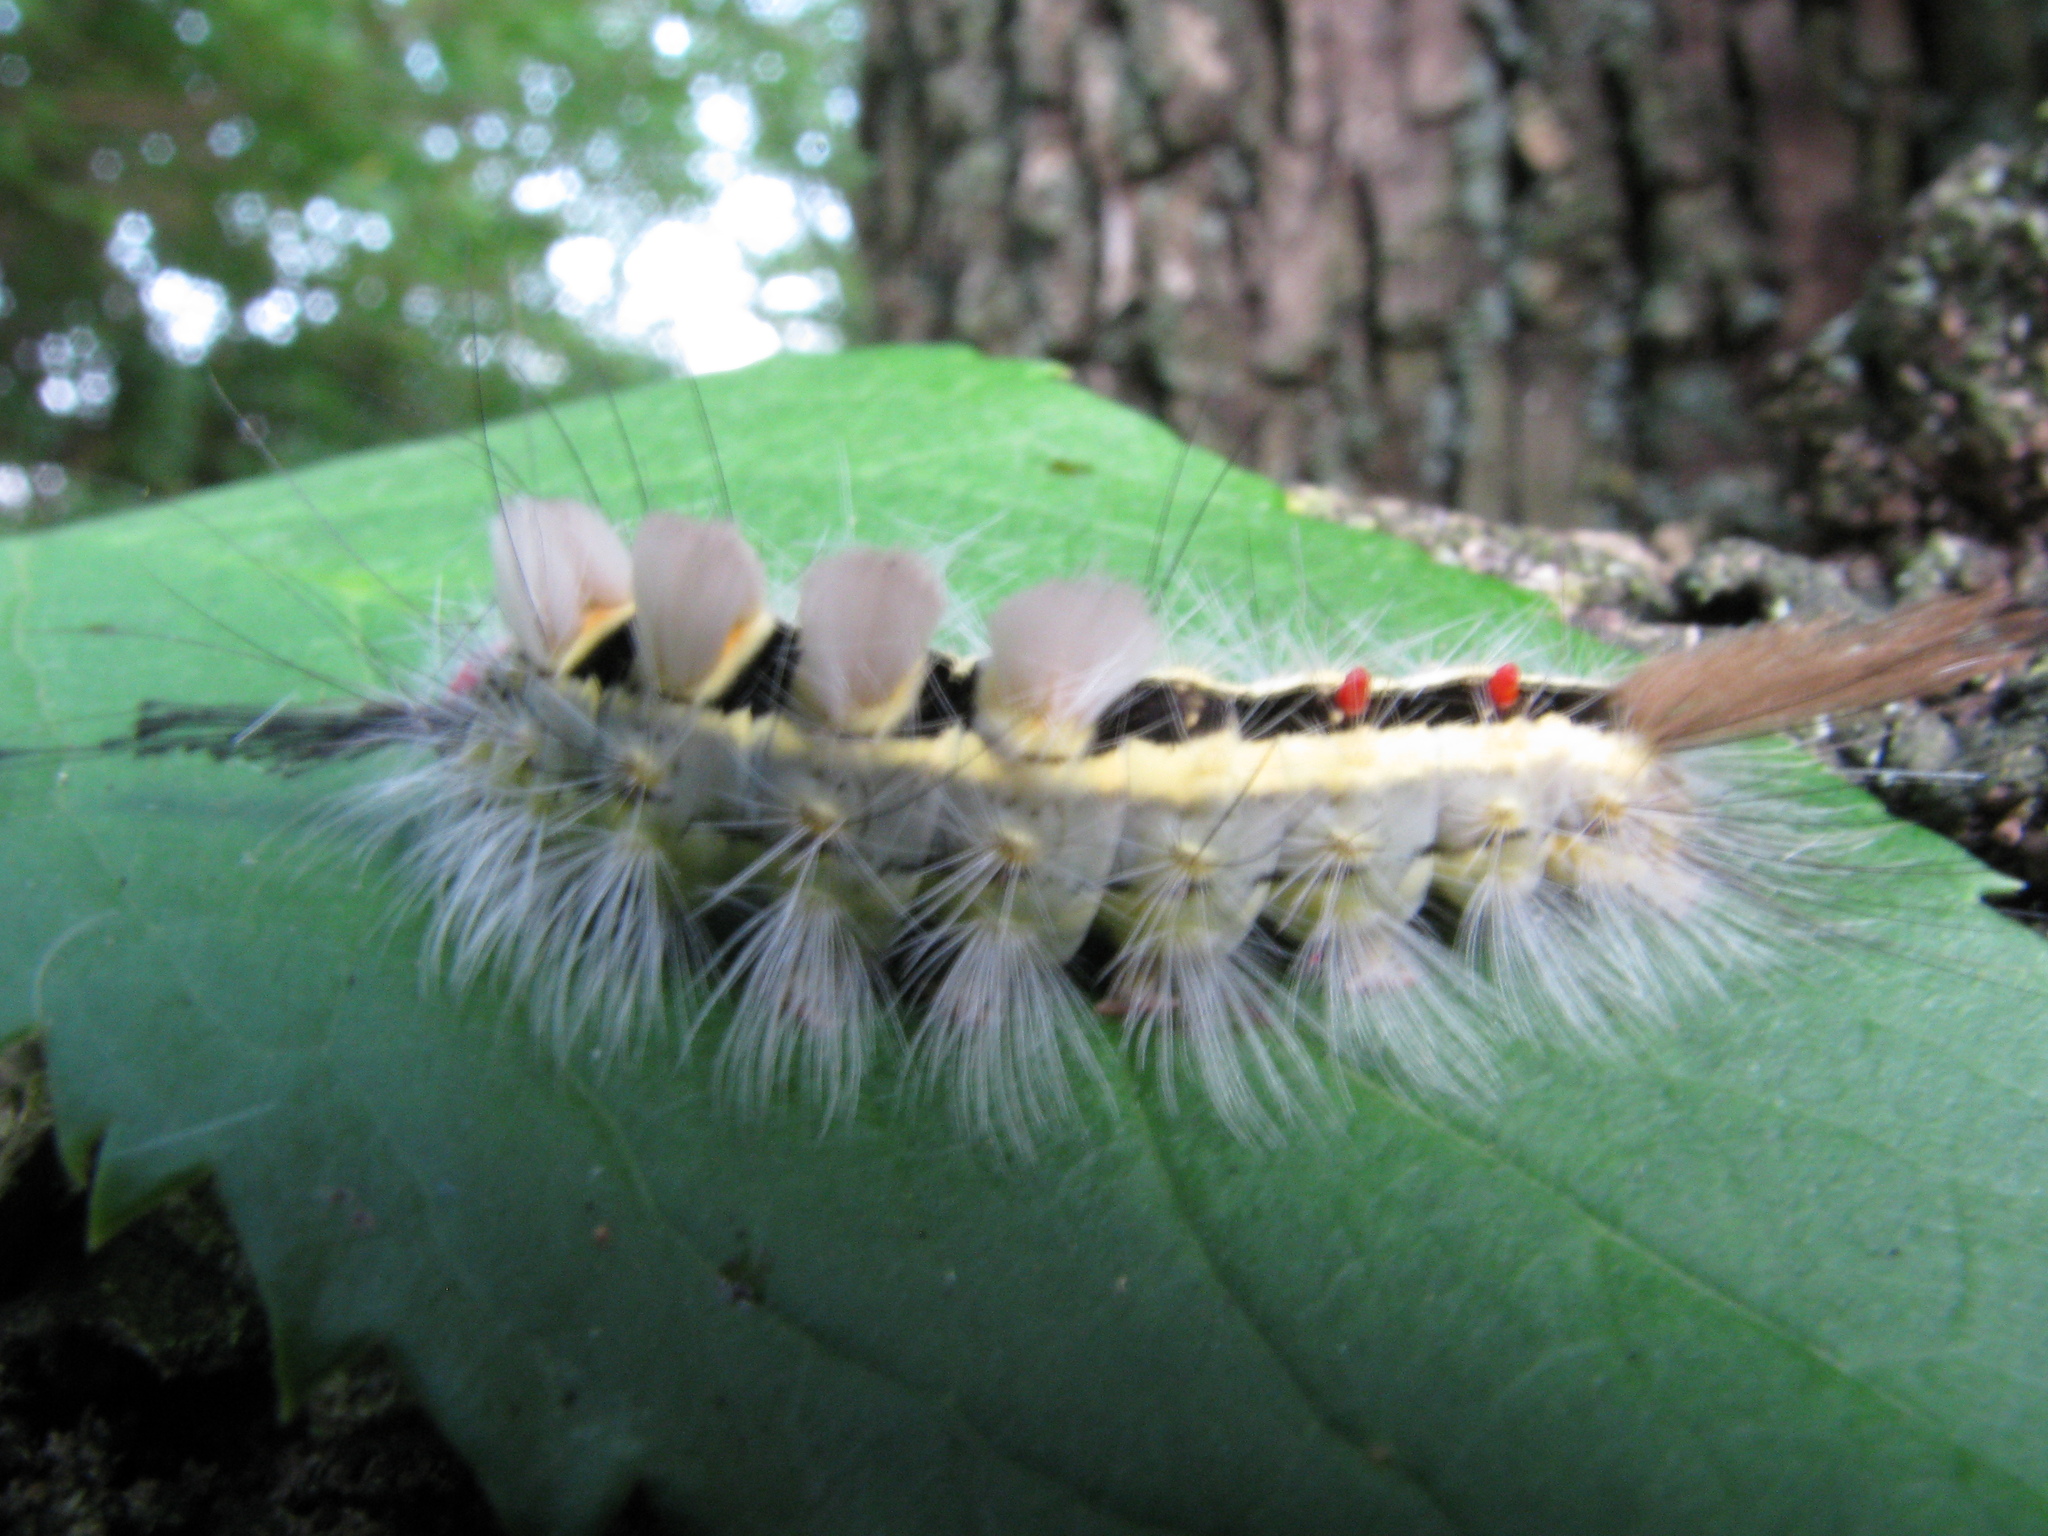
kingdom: Animalia
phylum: Arthropoda
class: Insecta
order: Lepidoptera
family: Erebidae
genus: Orgyia
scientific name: Orgyia leucostigma
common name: White-marked tussock moth
